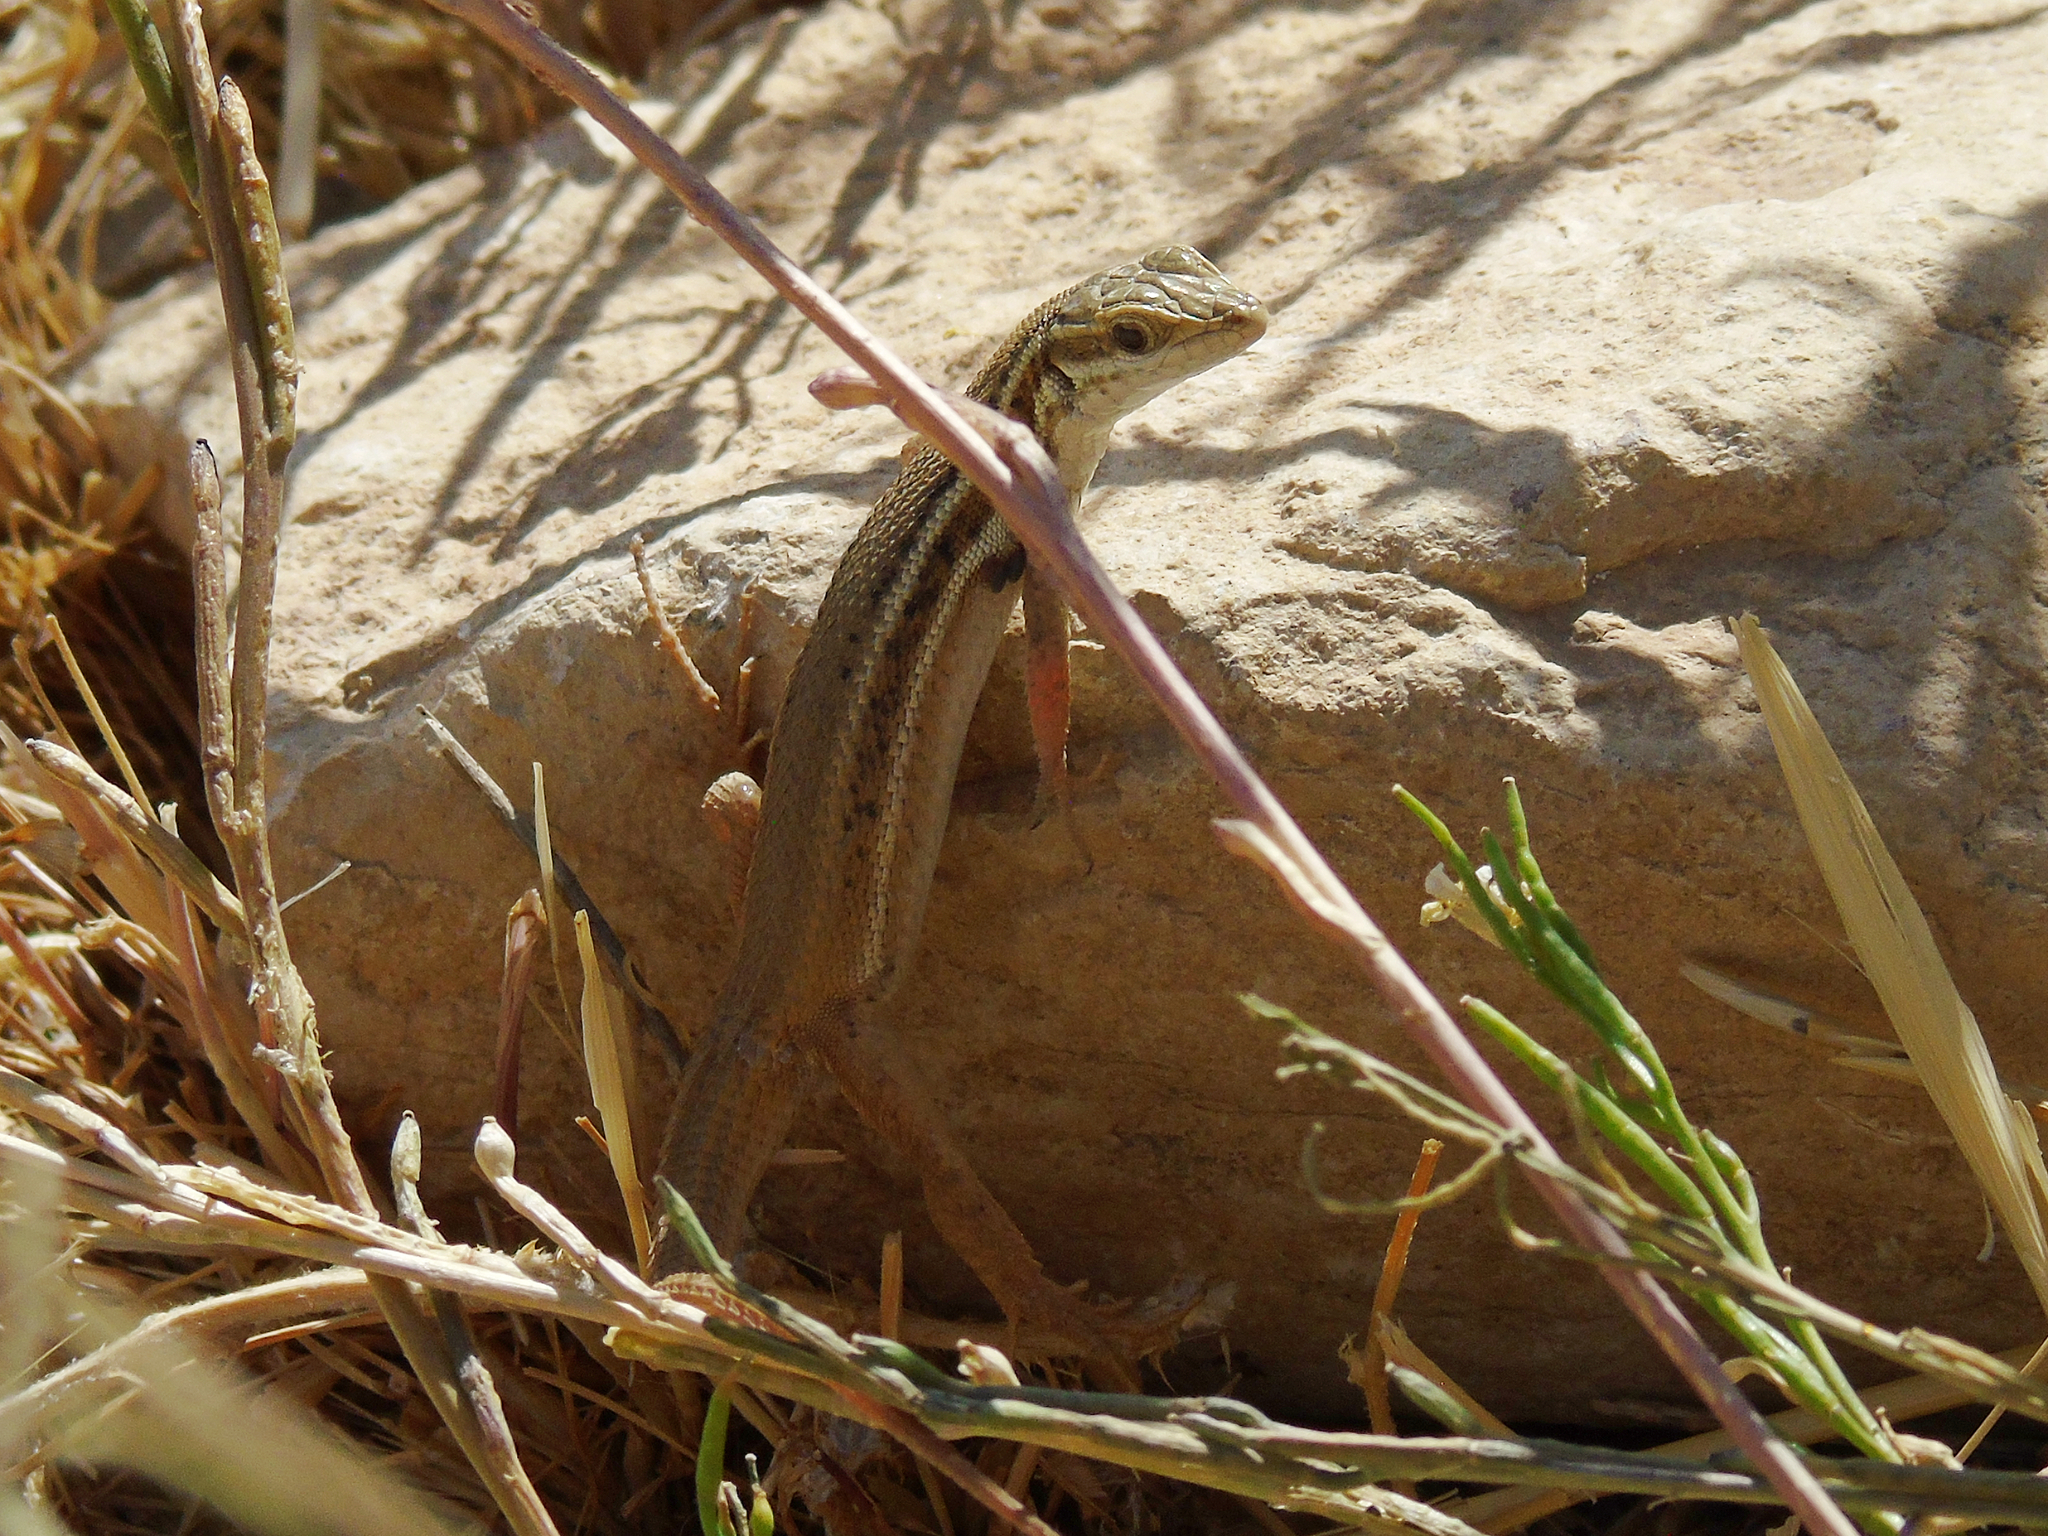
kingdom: Animalia
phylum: Chordata
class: Squamata
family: Lacertidae
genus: Ophisops
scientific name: Ophisops elegans
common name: Snake-eyed lizard
